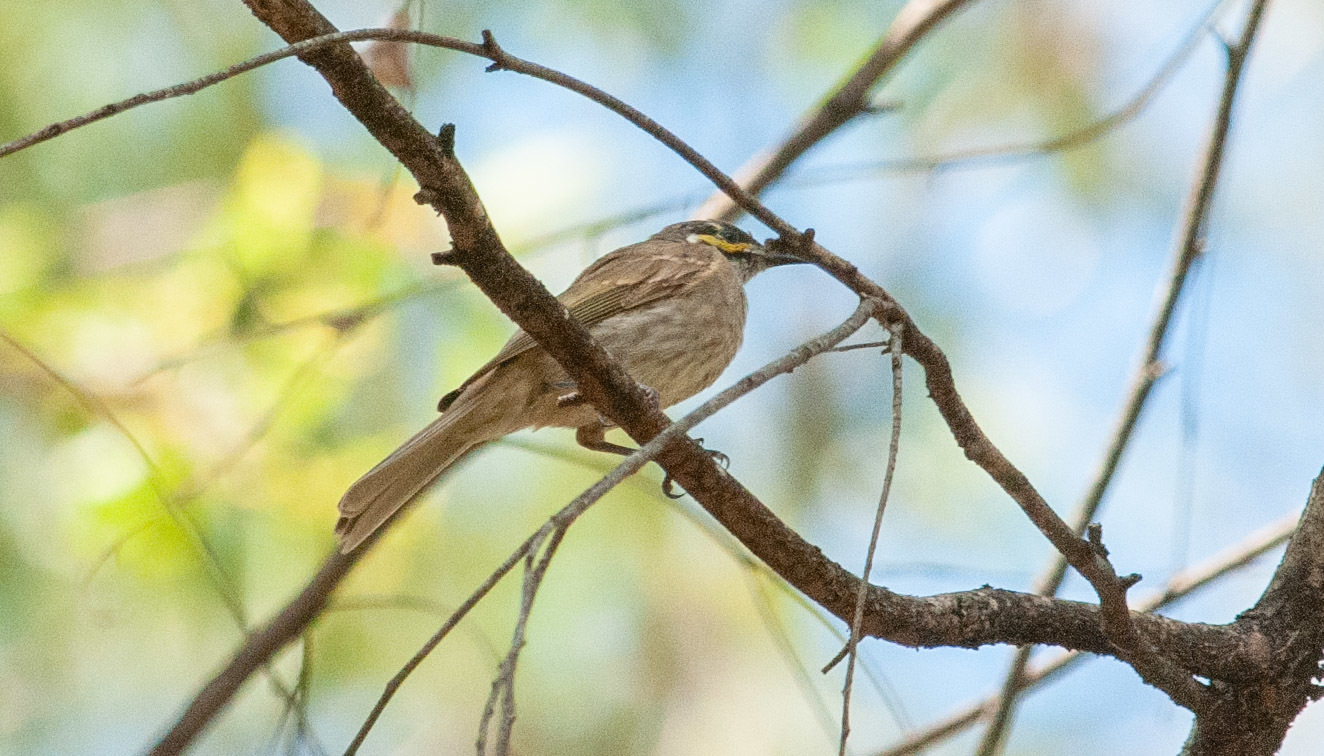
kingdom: Animalia
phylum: Chordata
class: Aves
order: Passeriformes
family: Meliphagidae
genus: Caligavis
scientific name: Caligavis chrysops
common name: Yellow-faced honeyeater
